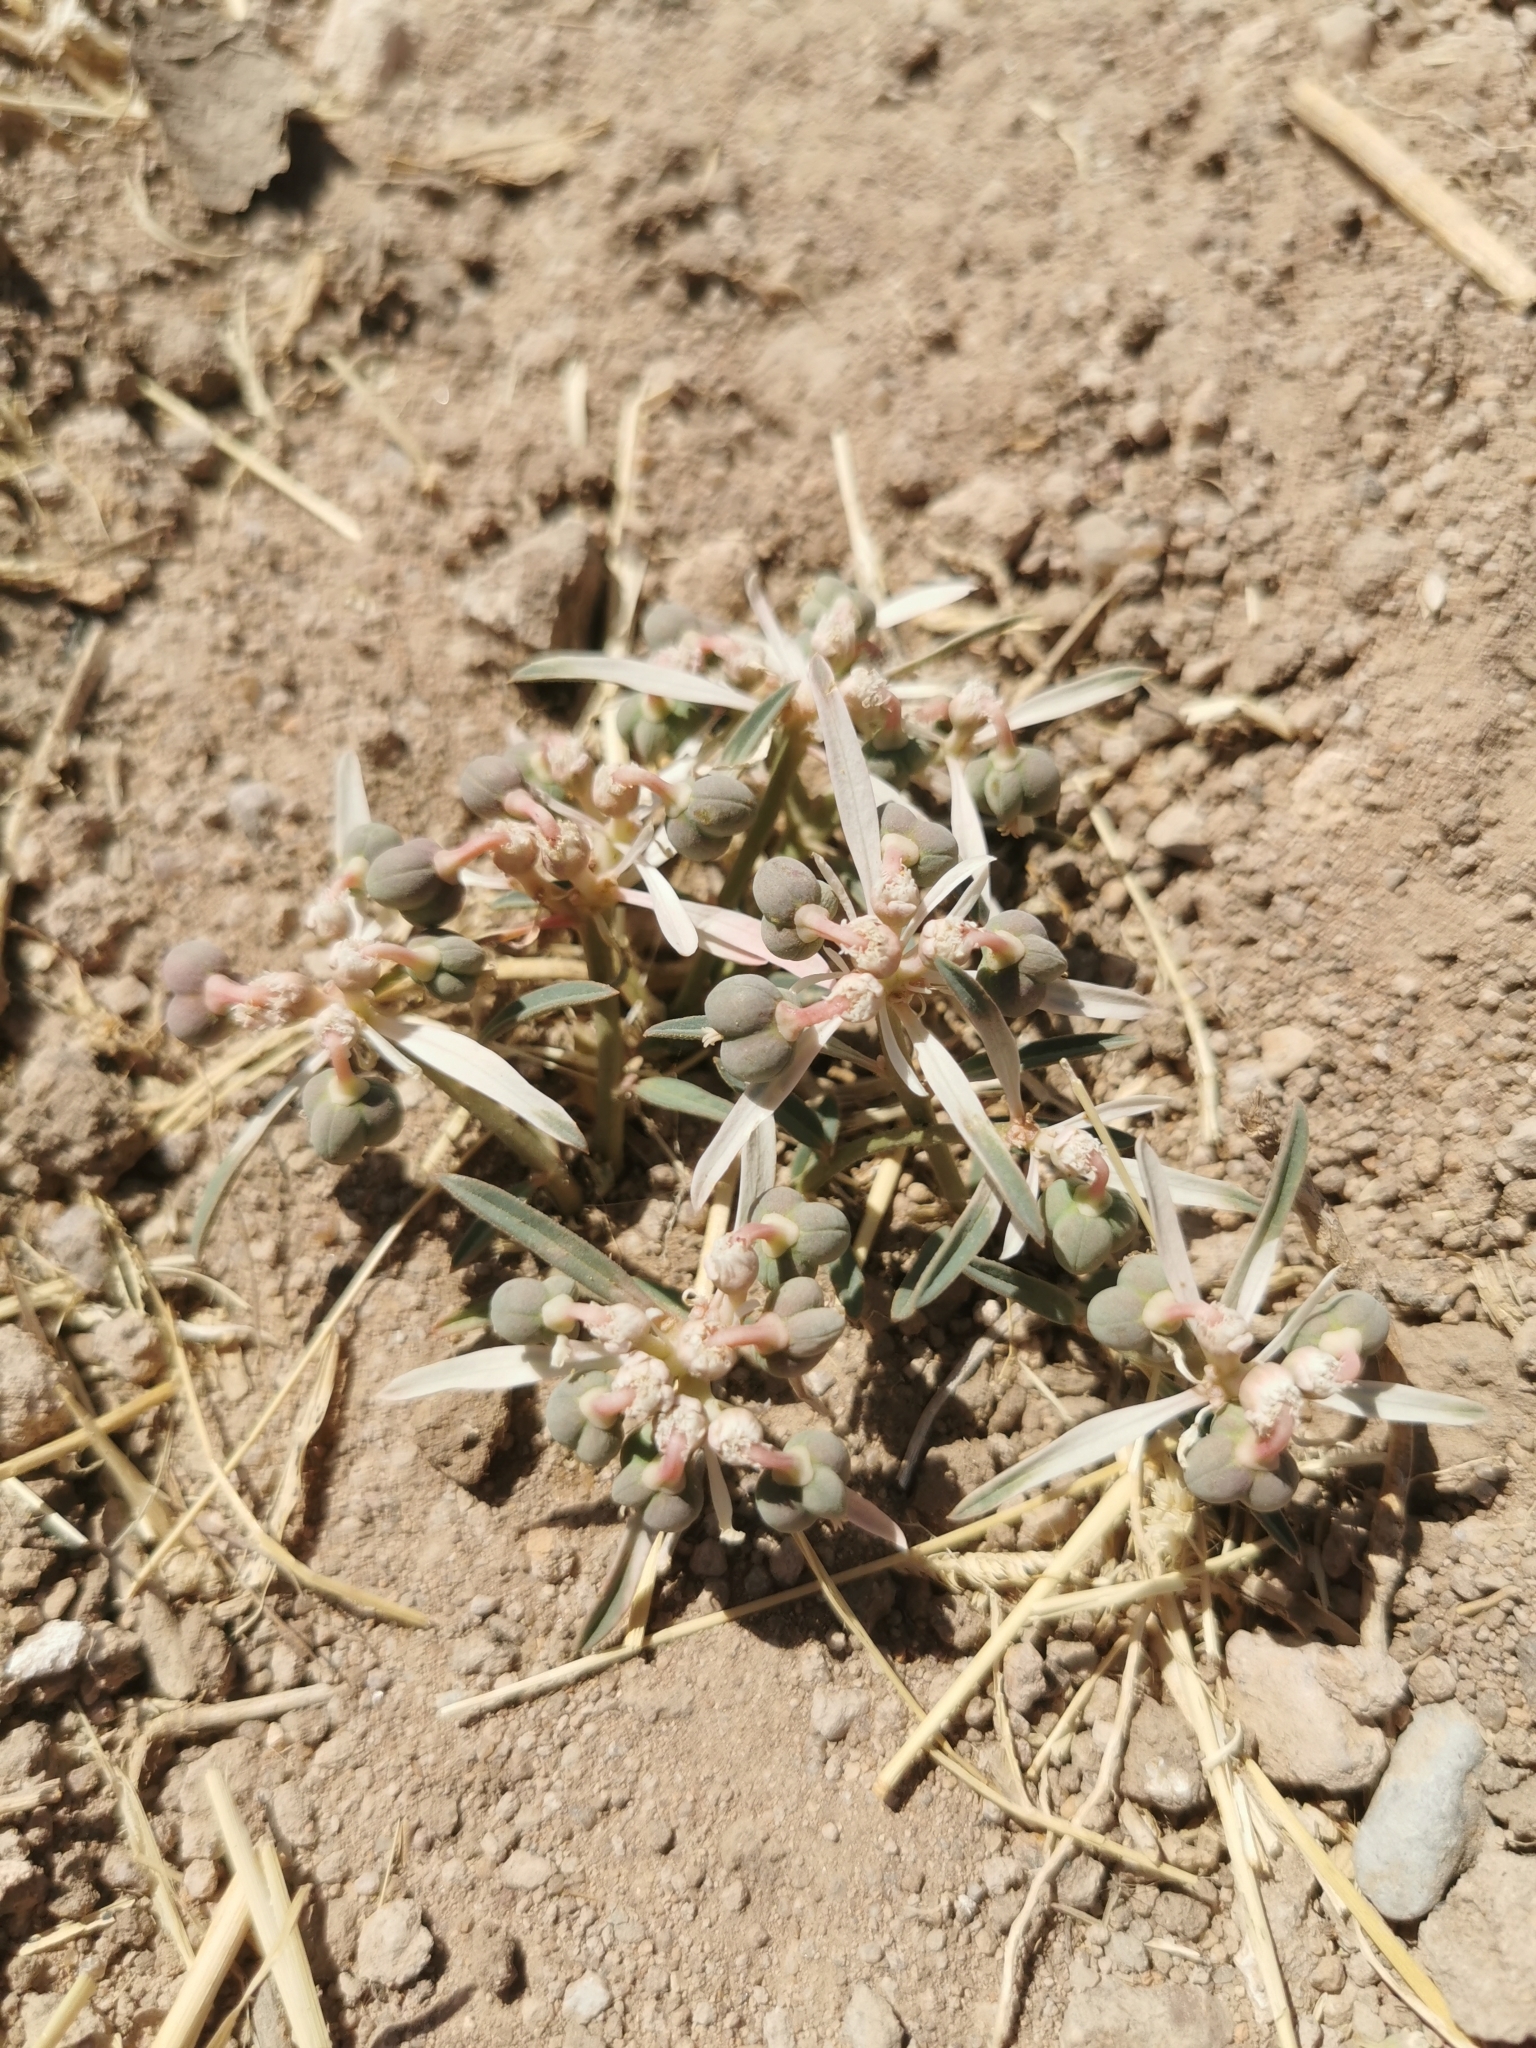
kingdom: Plantae
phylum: Tracheophyta
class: Magnoliopsida
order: Malpighiales
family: Euphorbiaceae
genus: Euphorbia
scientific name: Euphorbia radians
